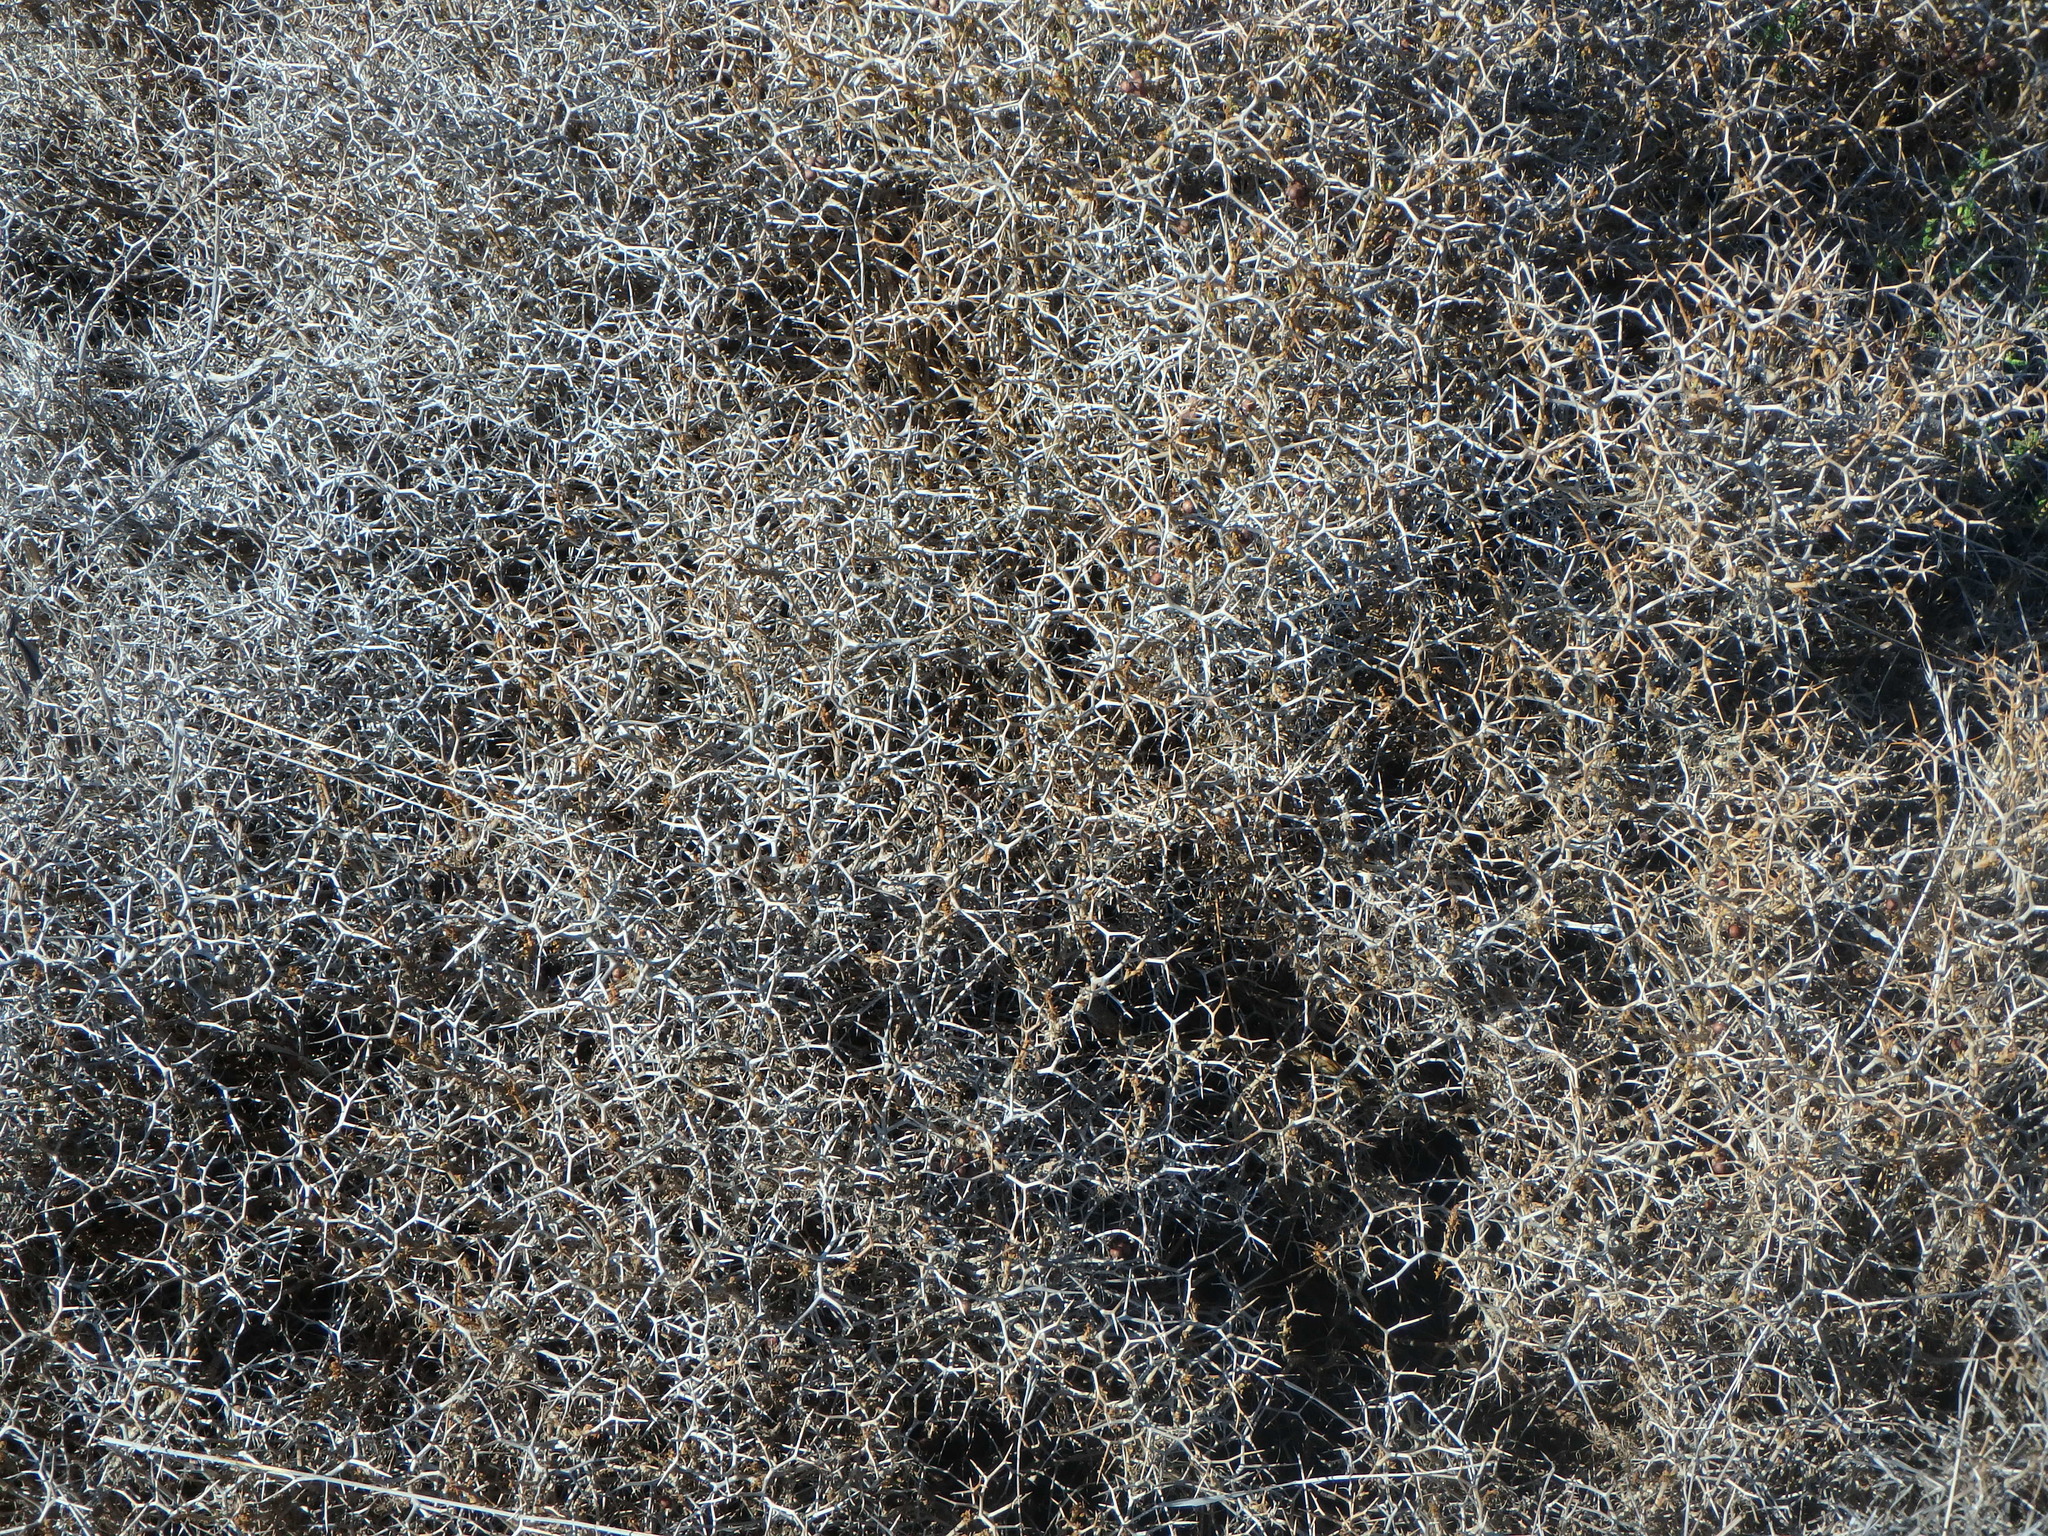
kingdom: Plantae
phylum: Tracheophyta
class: Magnoliopsida
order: Rosales
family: Rosaceae
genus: Sarcopoterium
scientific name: Sarcopoterium spinosum
